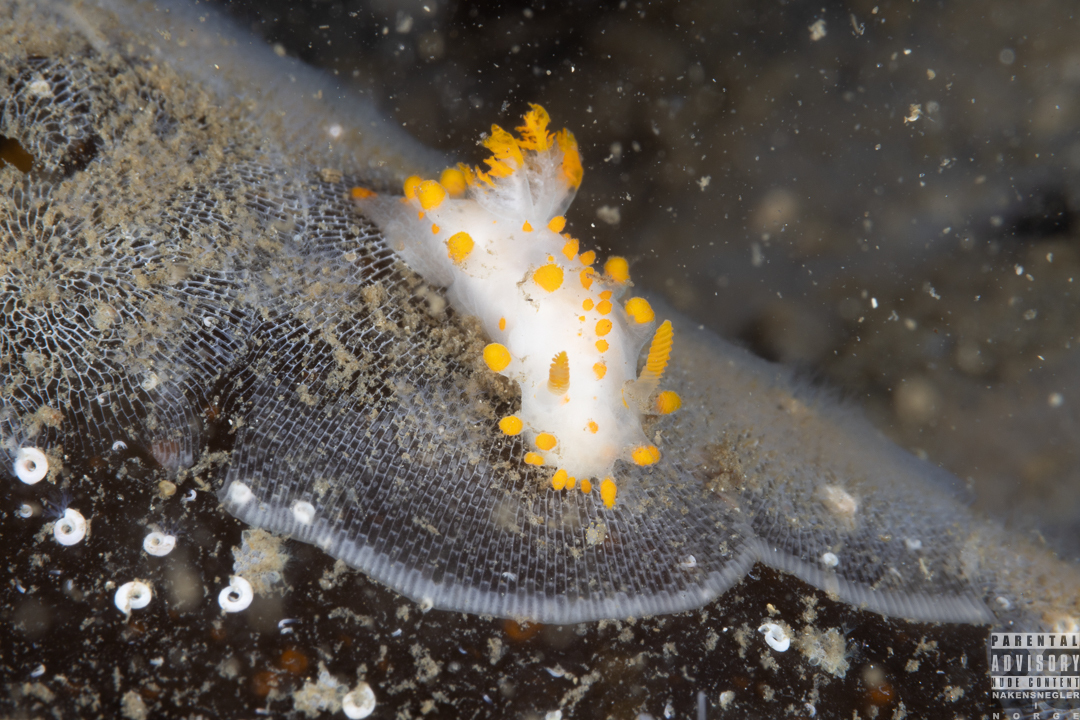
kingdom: Animalia
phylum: Mollusca
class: Gastropoda
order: Nudibranchia
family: Polyceridae
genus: Limacia
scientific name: Limacia clavigera
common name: Orange-clubbed sea slug
